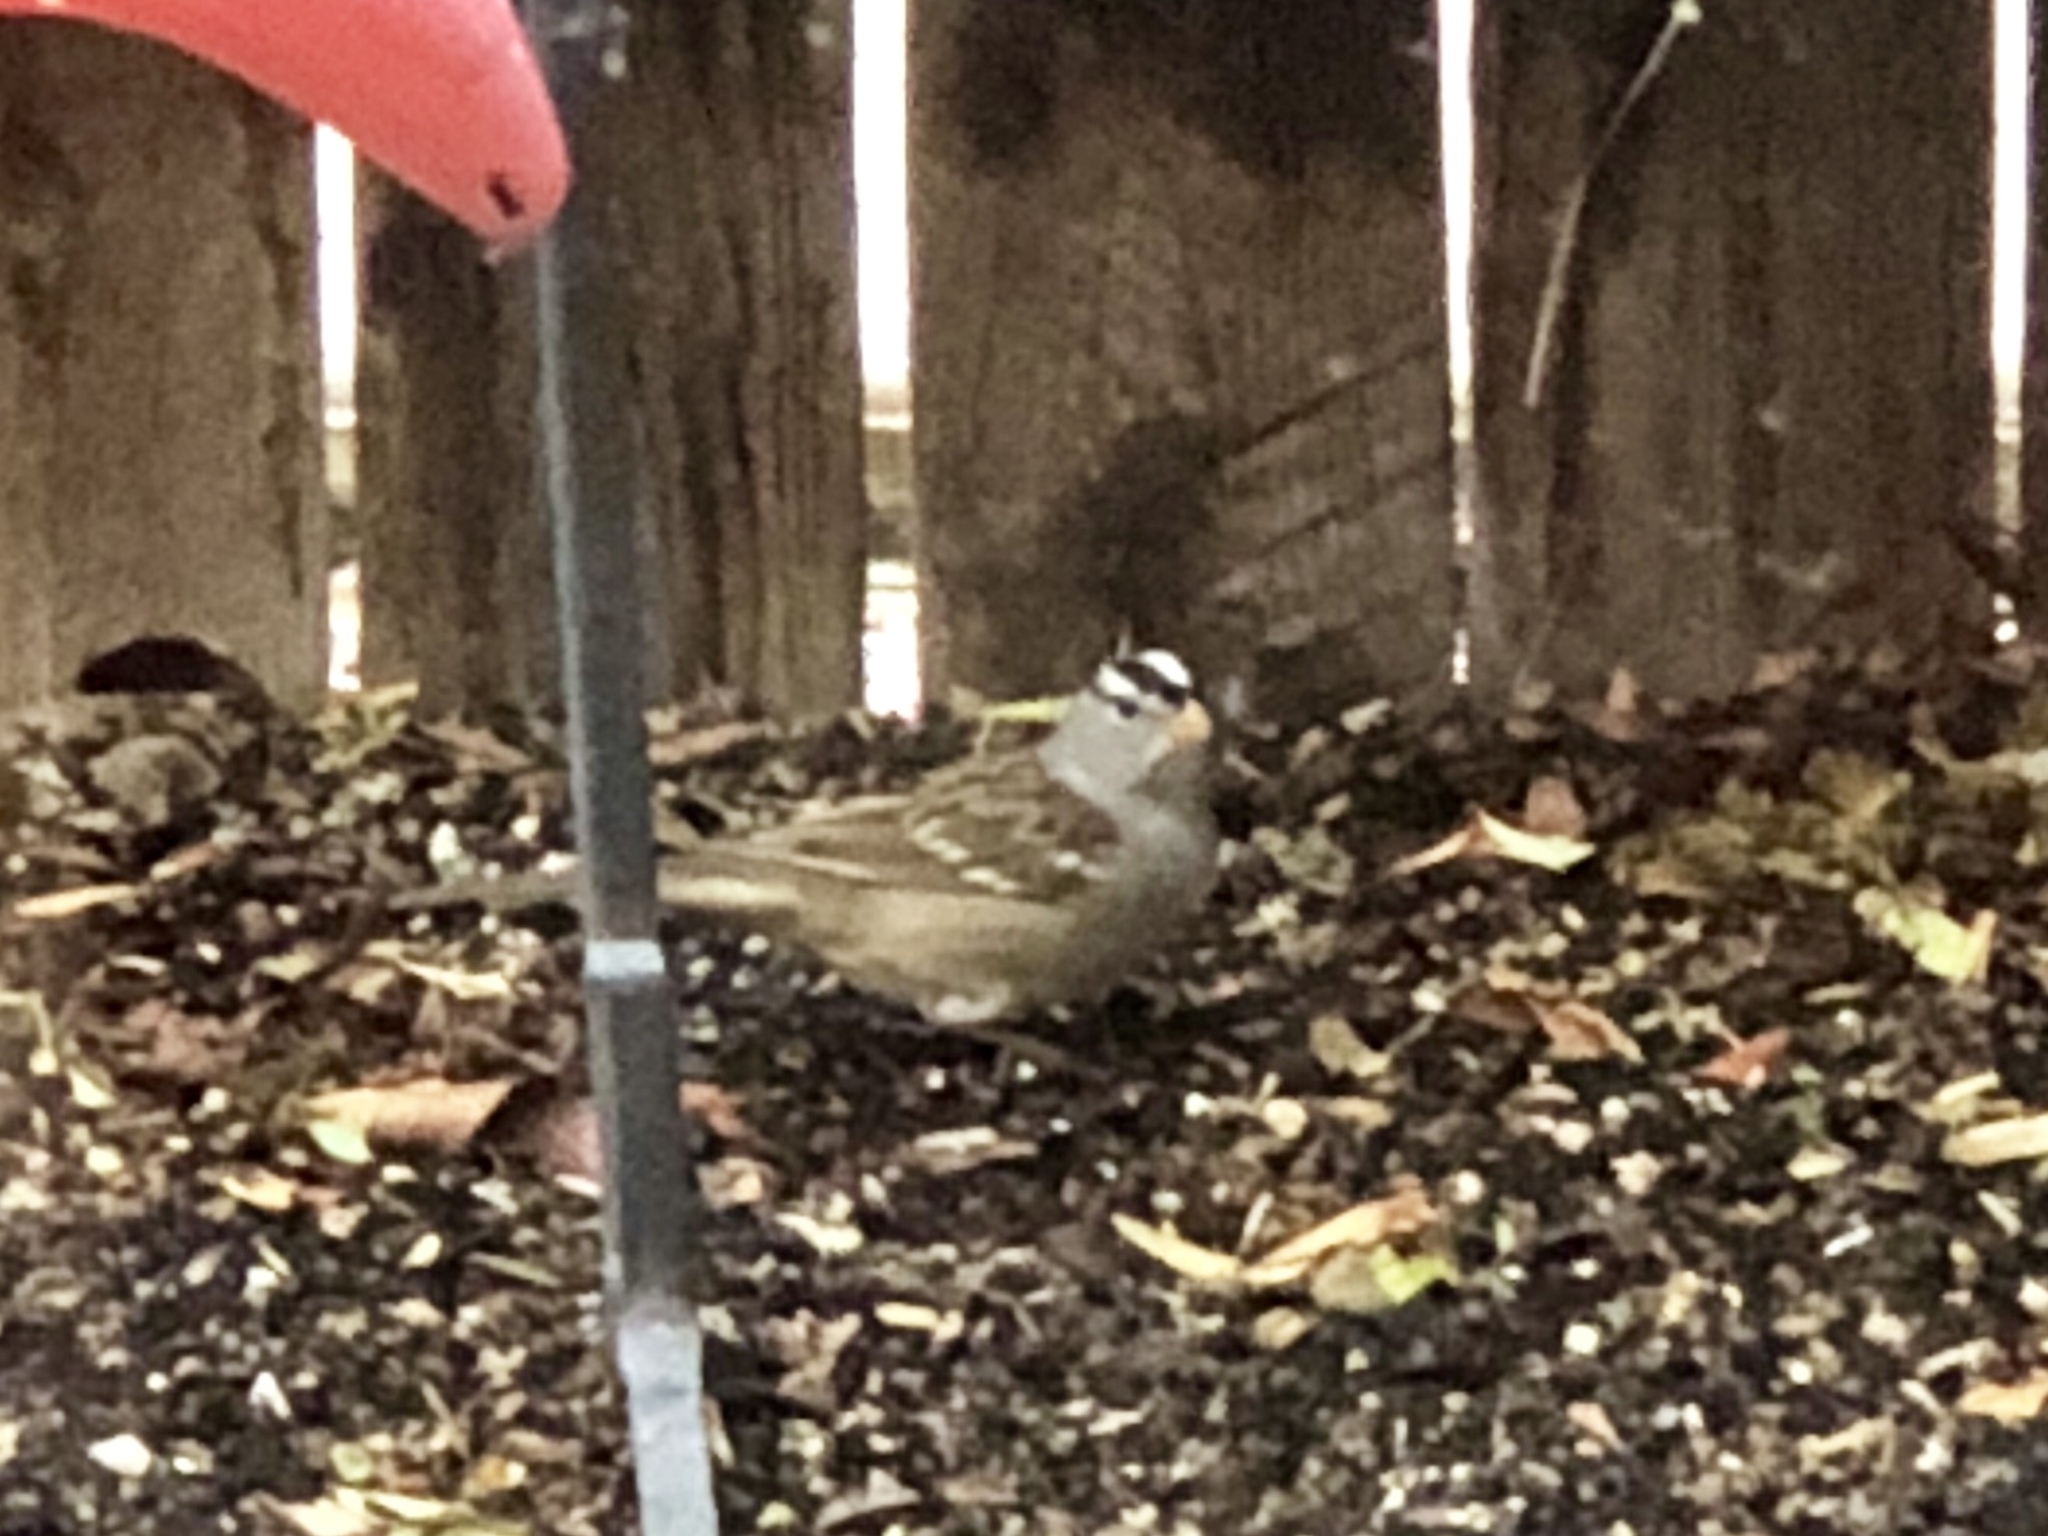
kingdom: Animalia
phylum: Chordata
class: Aves
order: Passeriformes
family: Passerellidae
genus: Zonotrichia
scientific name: Zonotrichia leucophrys
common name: White-crowned sparrow
